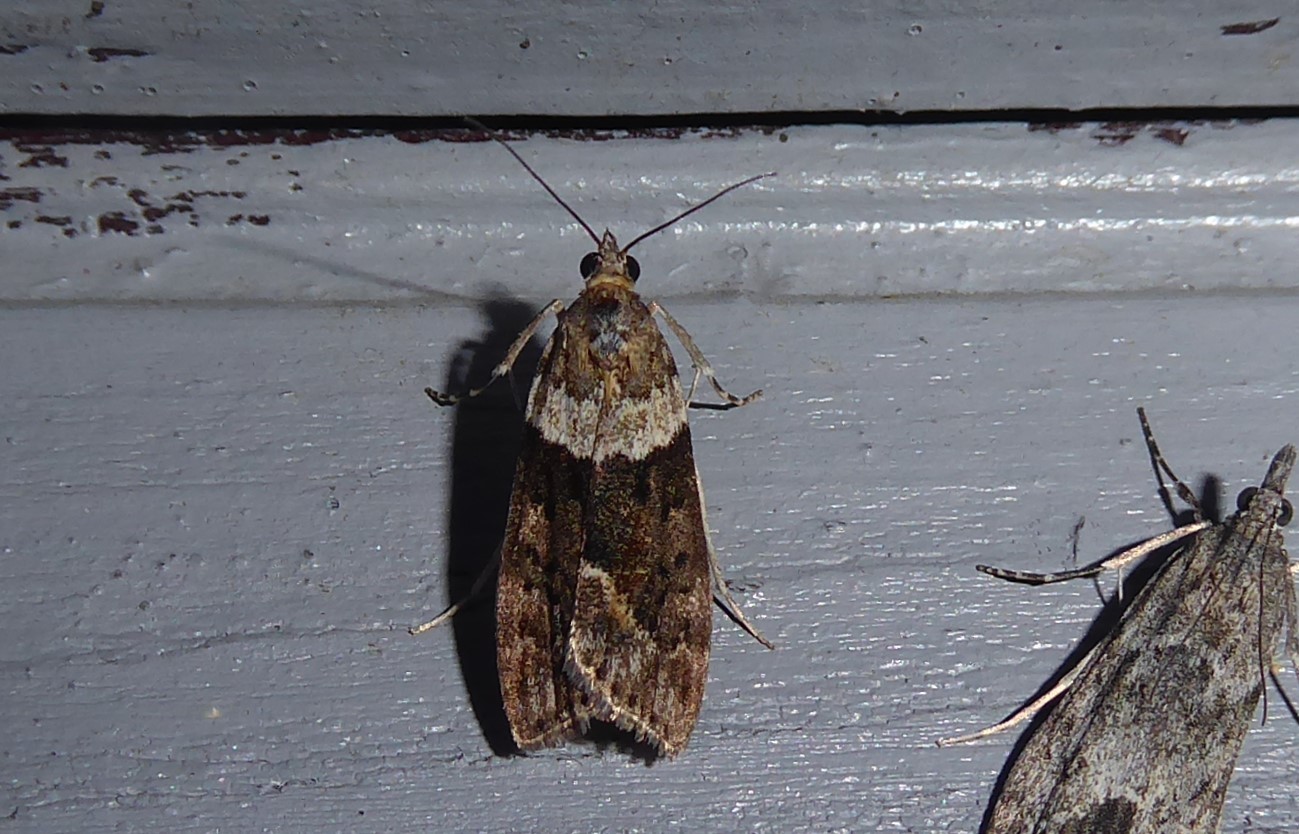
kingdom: Animalia
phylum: Arthropoda
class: Insecta
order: Lepidoptera
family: Crambidae
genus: Eudonia
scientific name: Eudonia submarginalis
